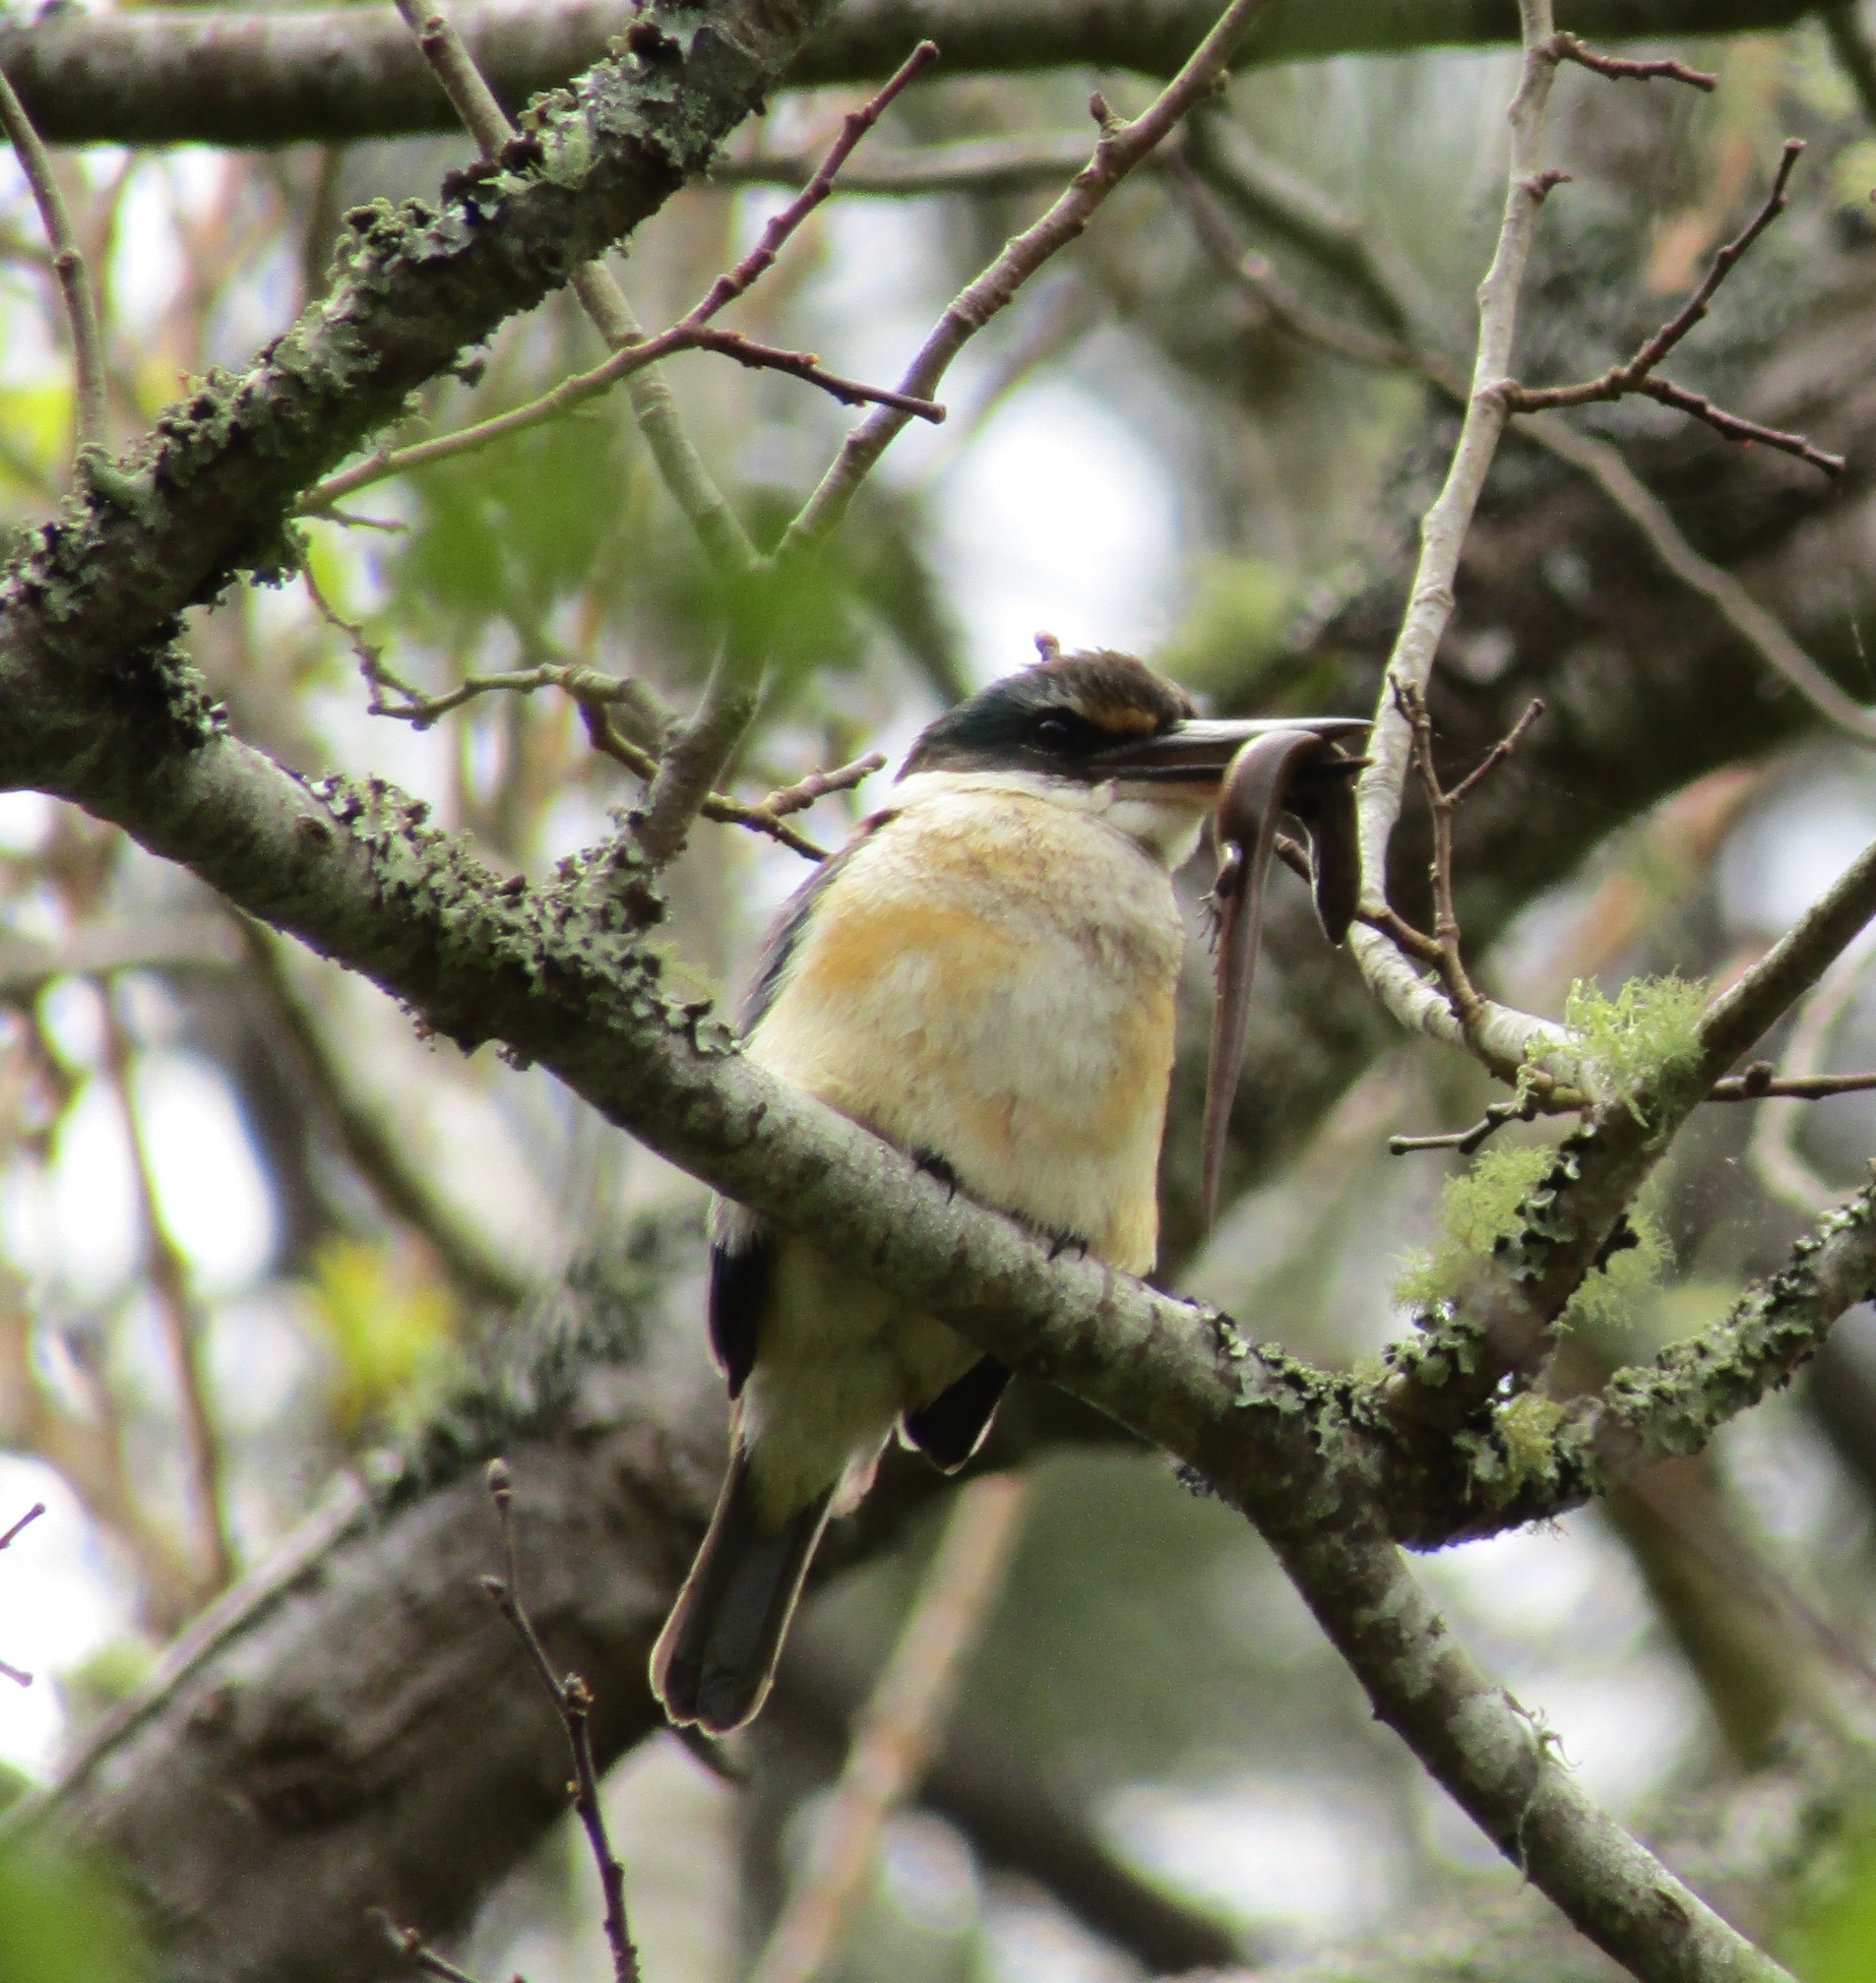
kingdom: Animalia
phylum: Chordata
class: Aves
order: Coraciiformes
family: Alcedinidae
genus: Todiramphus
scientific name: Todiramphus sanctus
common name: Sacred kingfisher
